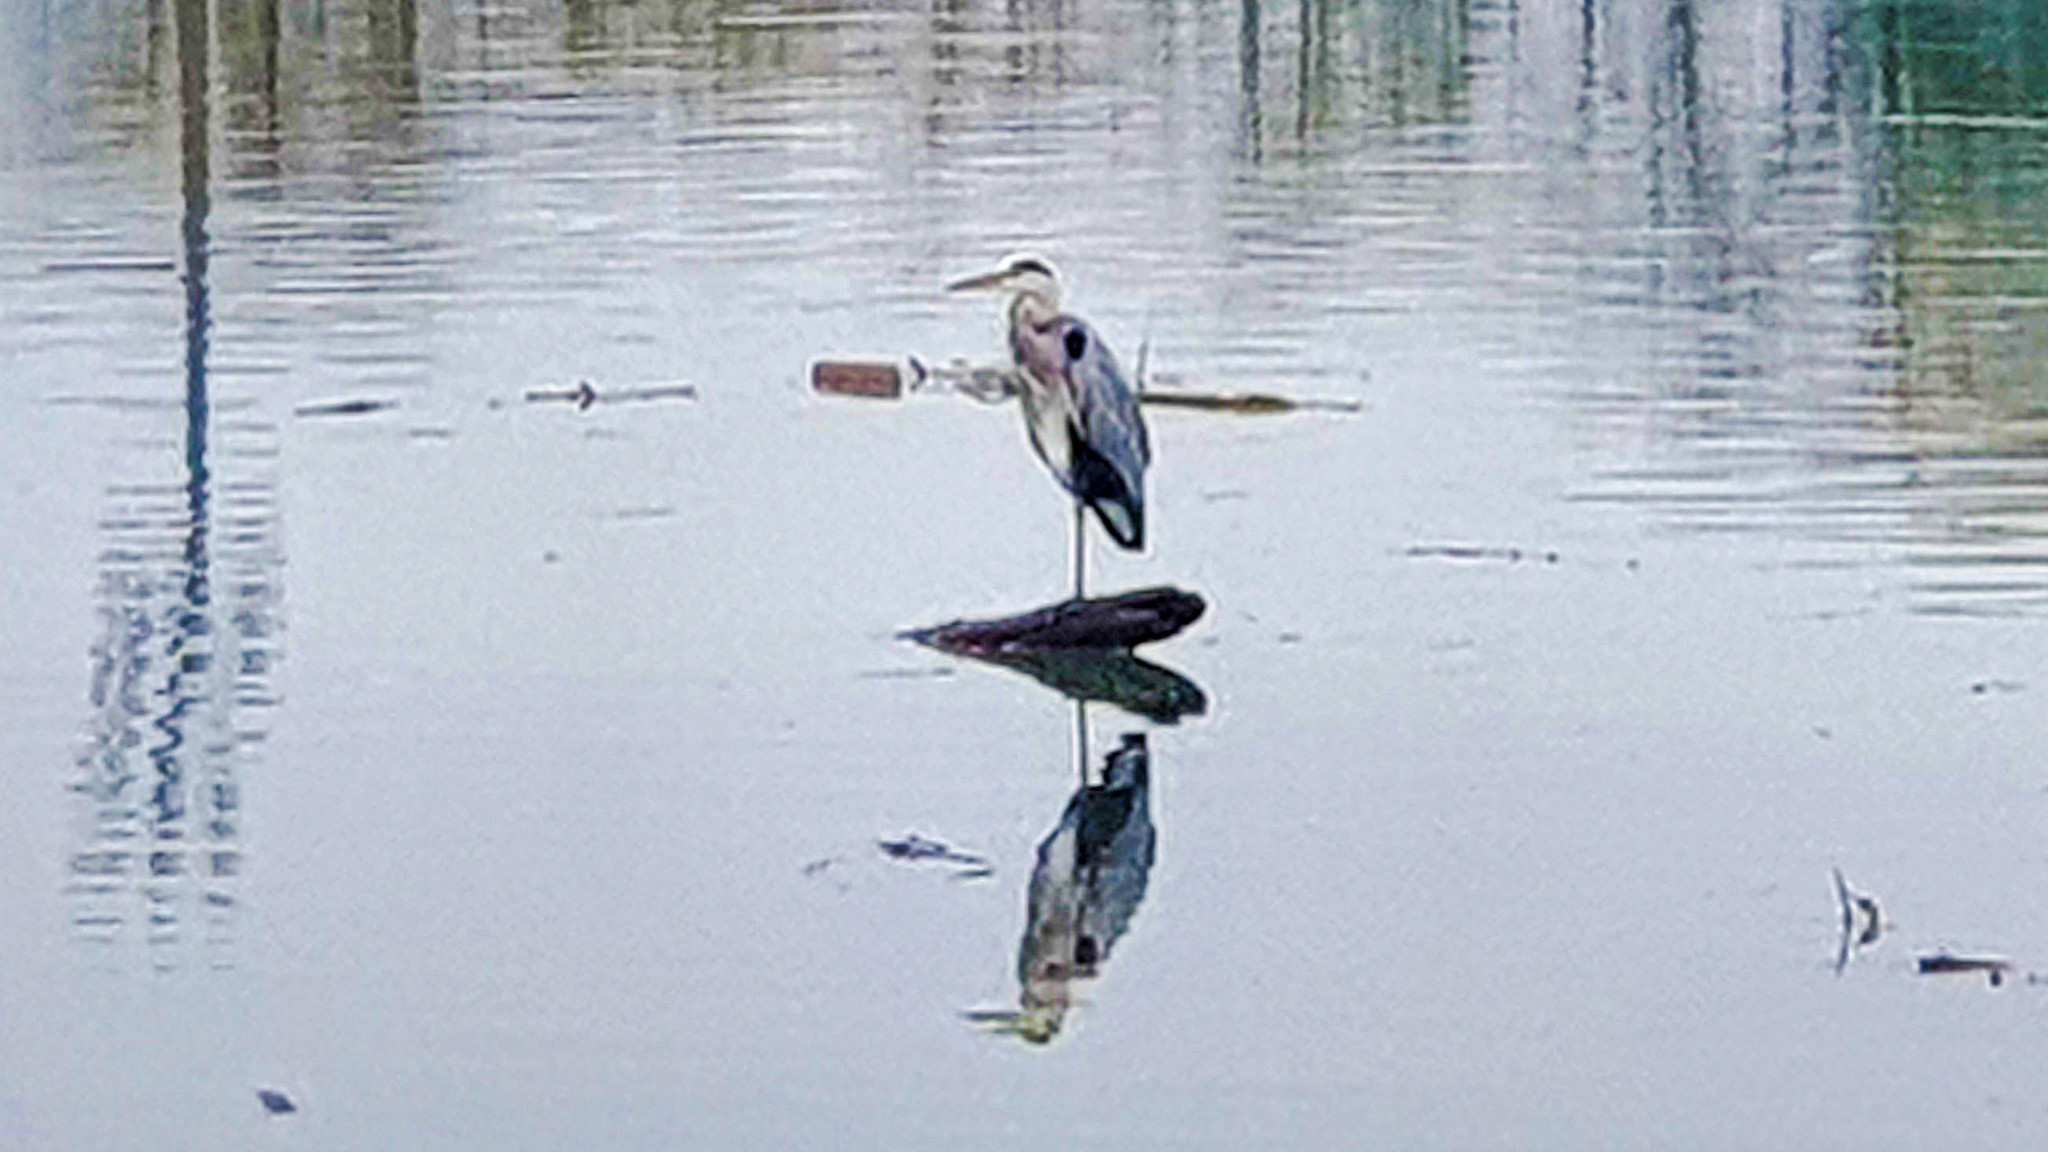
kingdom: Animalia
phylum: Chordata
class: Aves
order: Pelecaniformes
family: Ardeidae
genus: Ardea
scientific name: Ardea cinerea
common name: Grey heron
